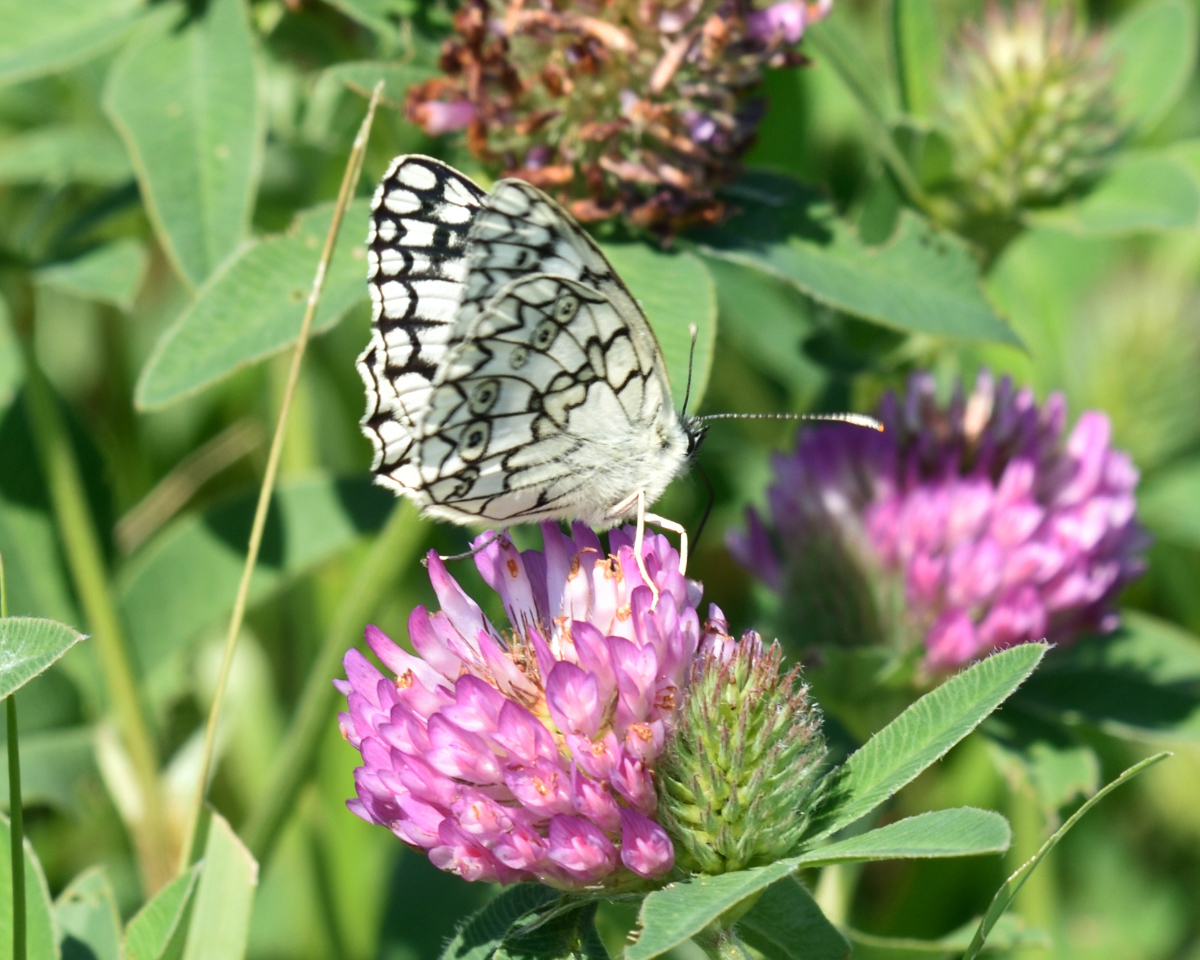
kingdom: Animalia
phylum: Arthropoda
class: Insecta
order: Lepidoptera
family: Nymphalidae
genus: Melanargia
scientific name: Melanargia japygia
